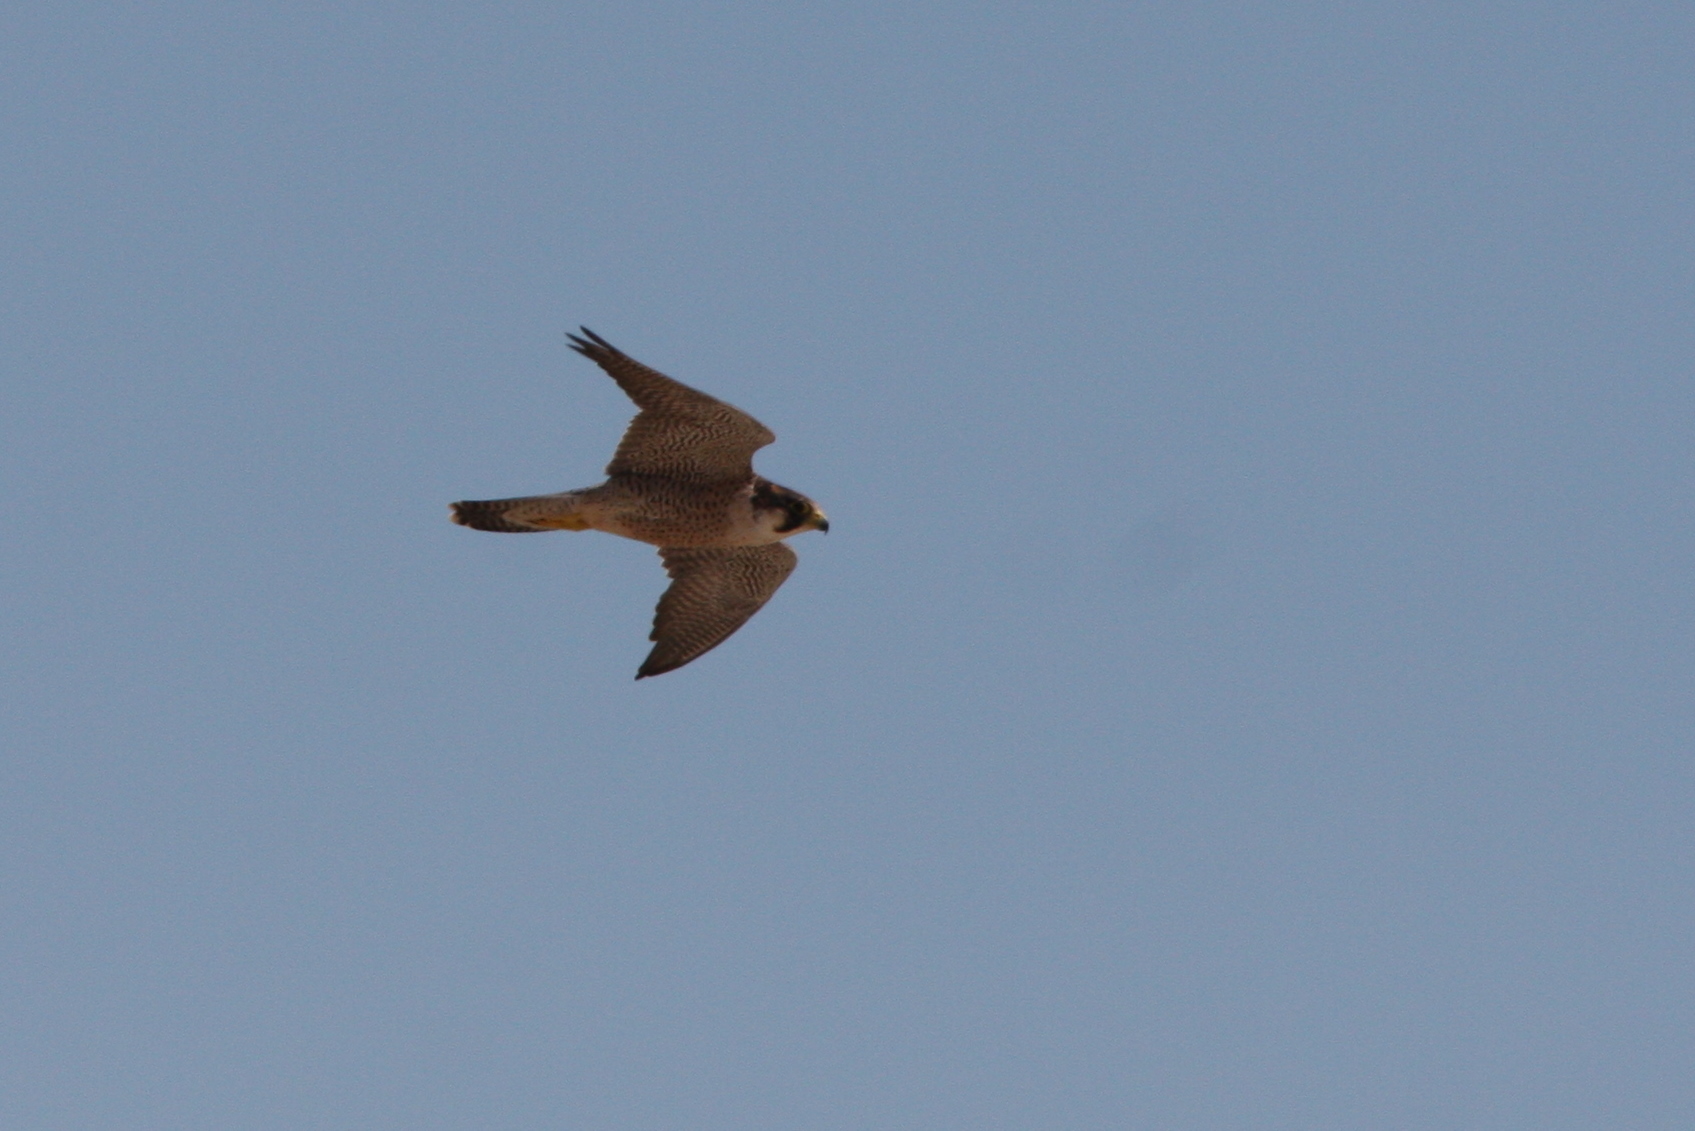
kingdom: Animalia
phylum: Chordata
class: Aves
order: Falconiformes
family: Falconidae
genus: Falco
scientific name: Falco peregrinus
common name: Peregrine falcon
